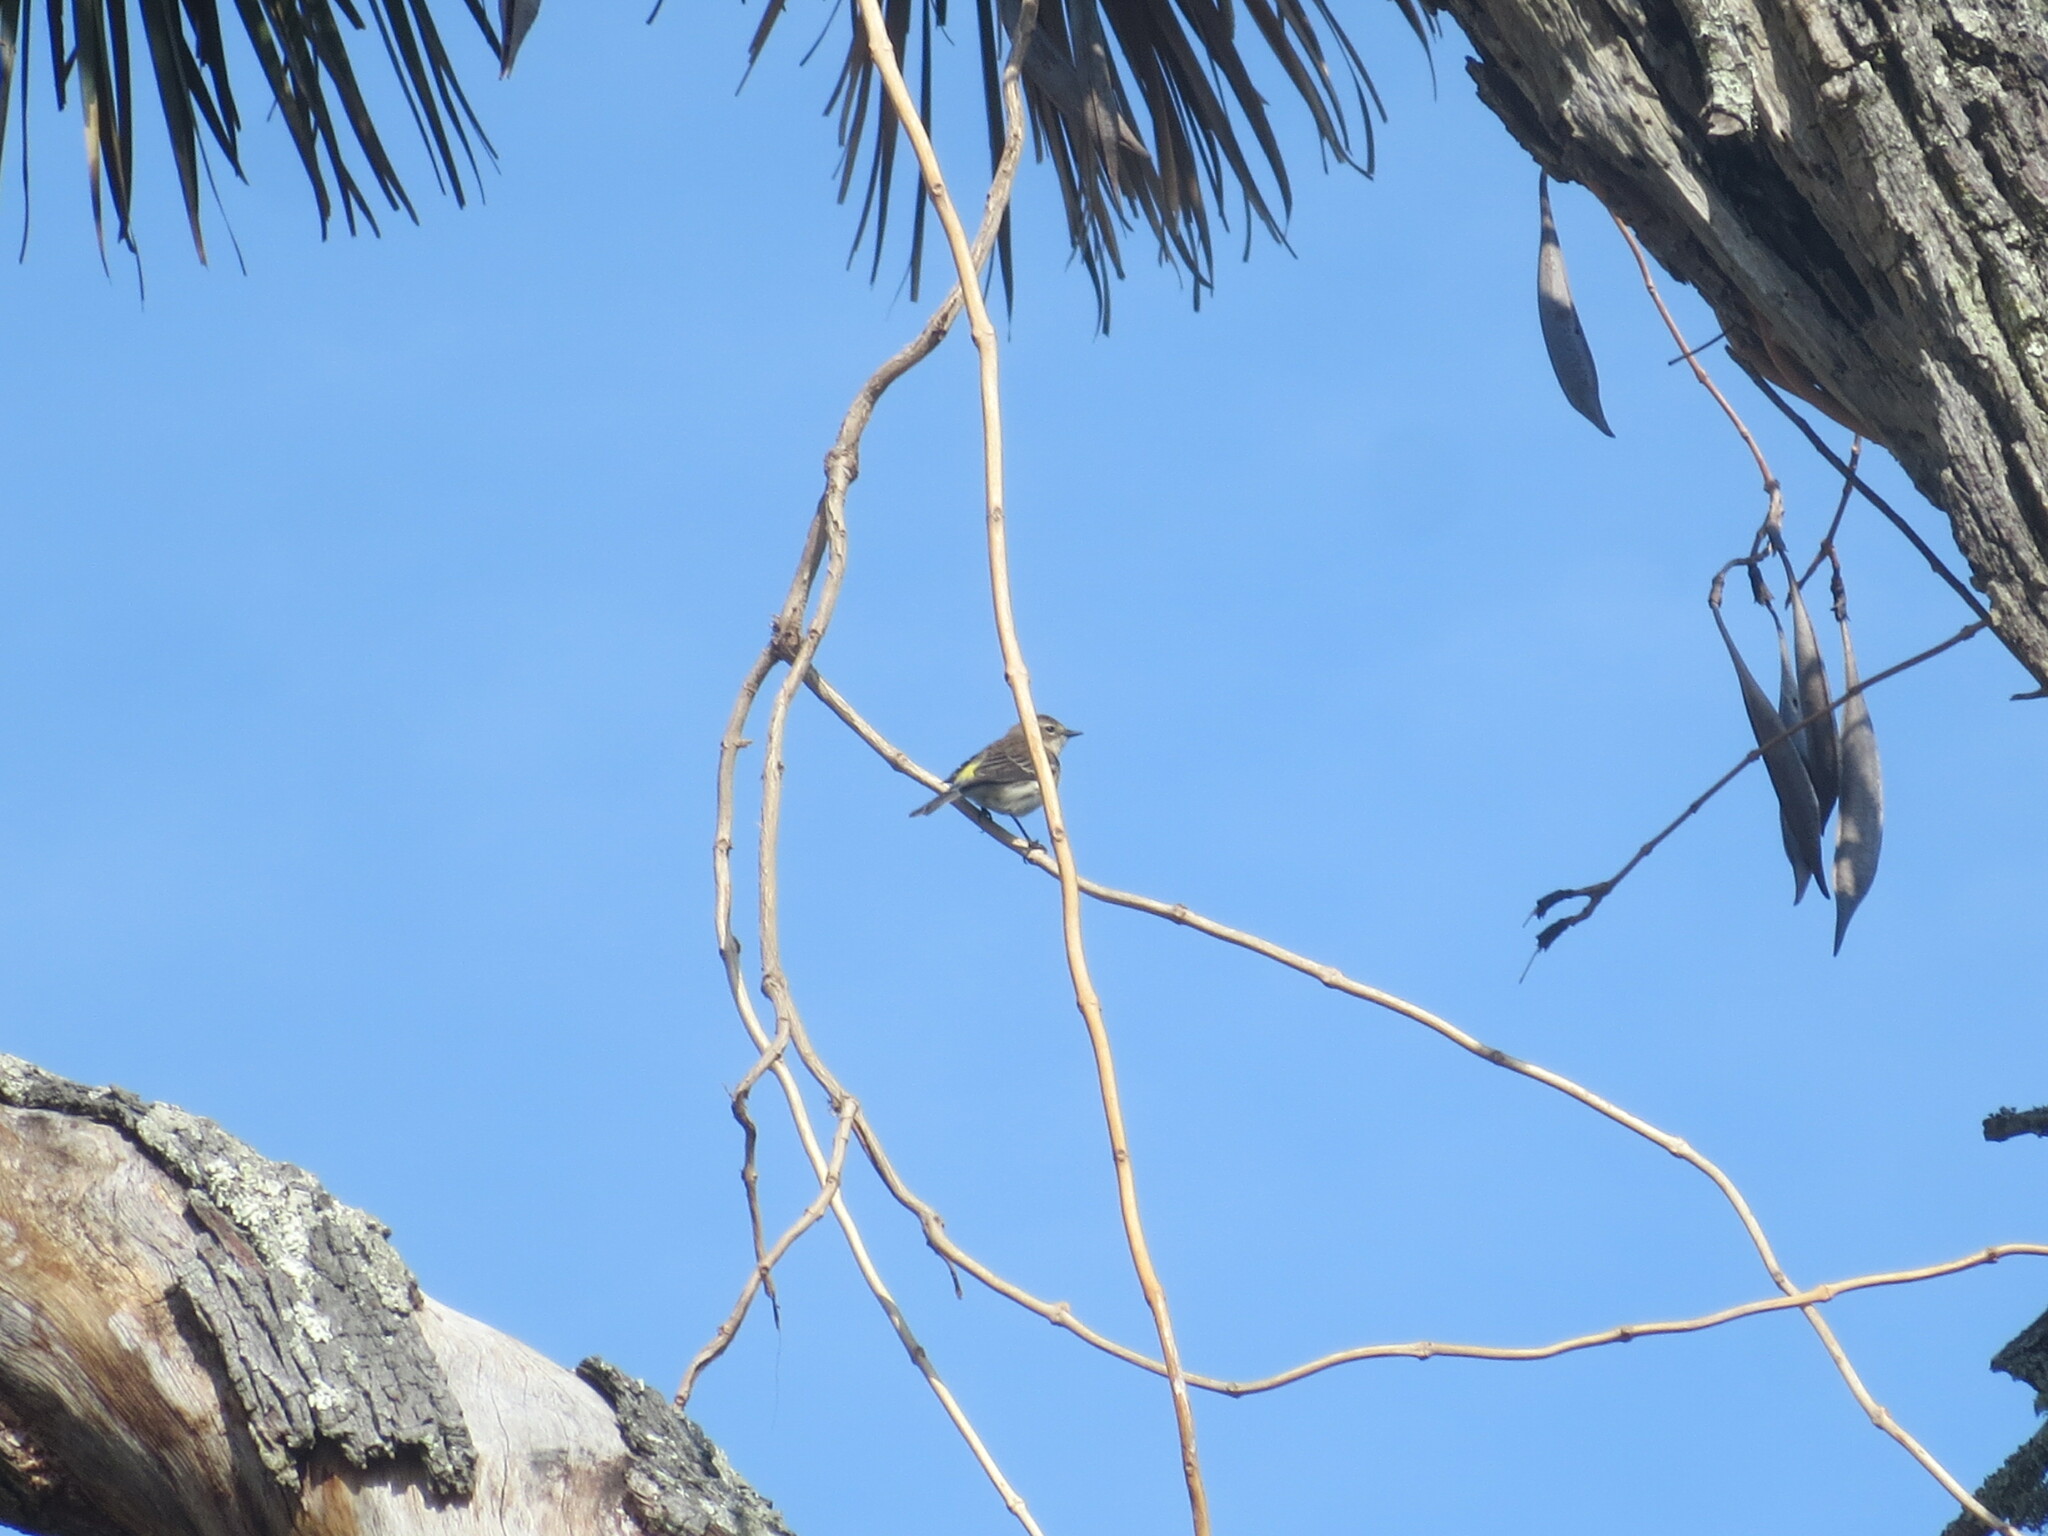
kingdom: Animalia
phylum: Chordata
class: Aves
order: Passeriformes
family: Parulidae
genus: Setophaga
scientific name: Setophaga coronata
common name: Myrtle warbler
